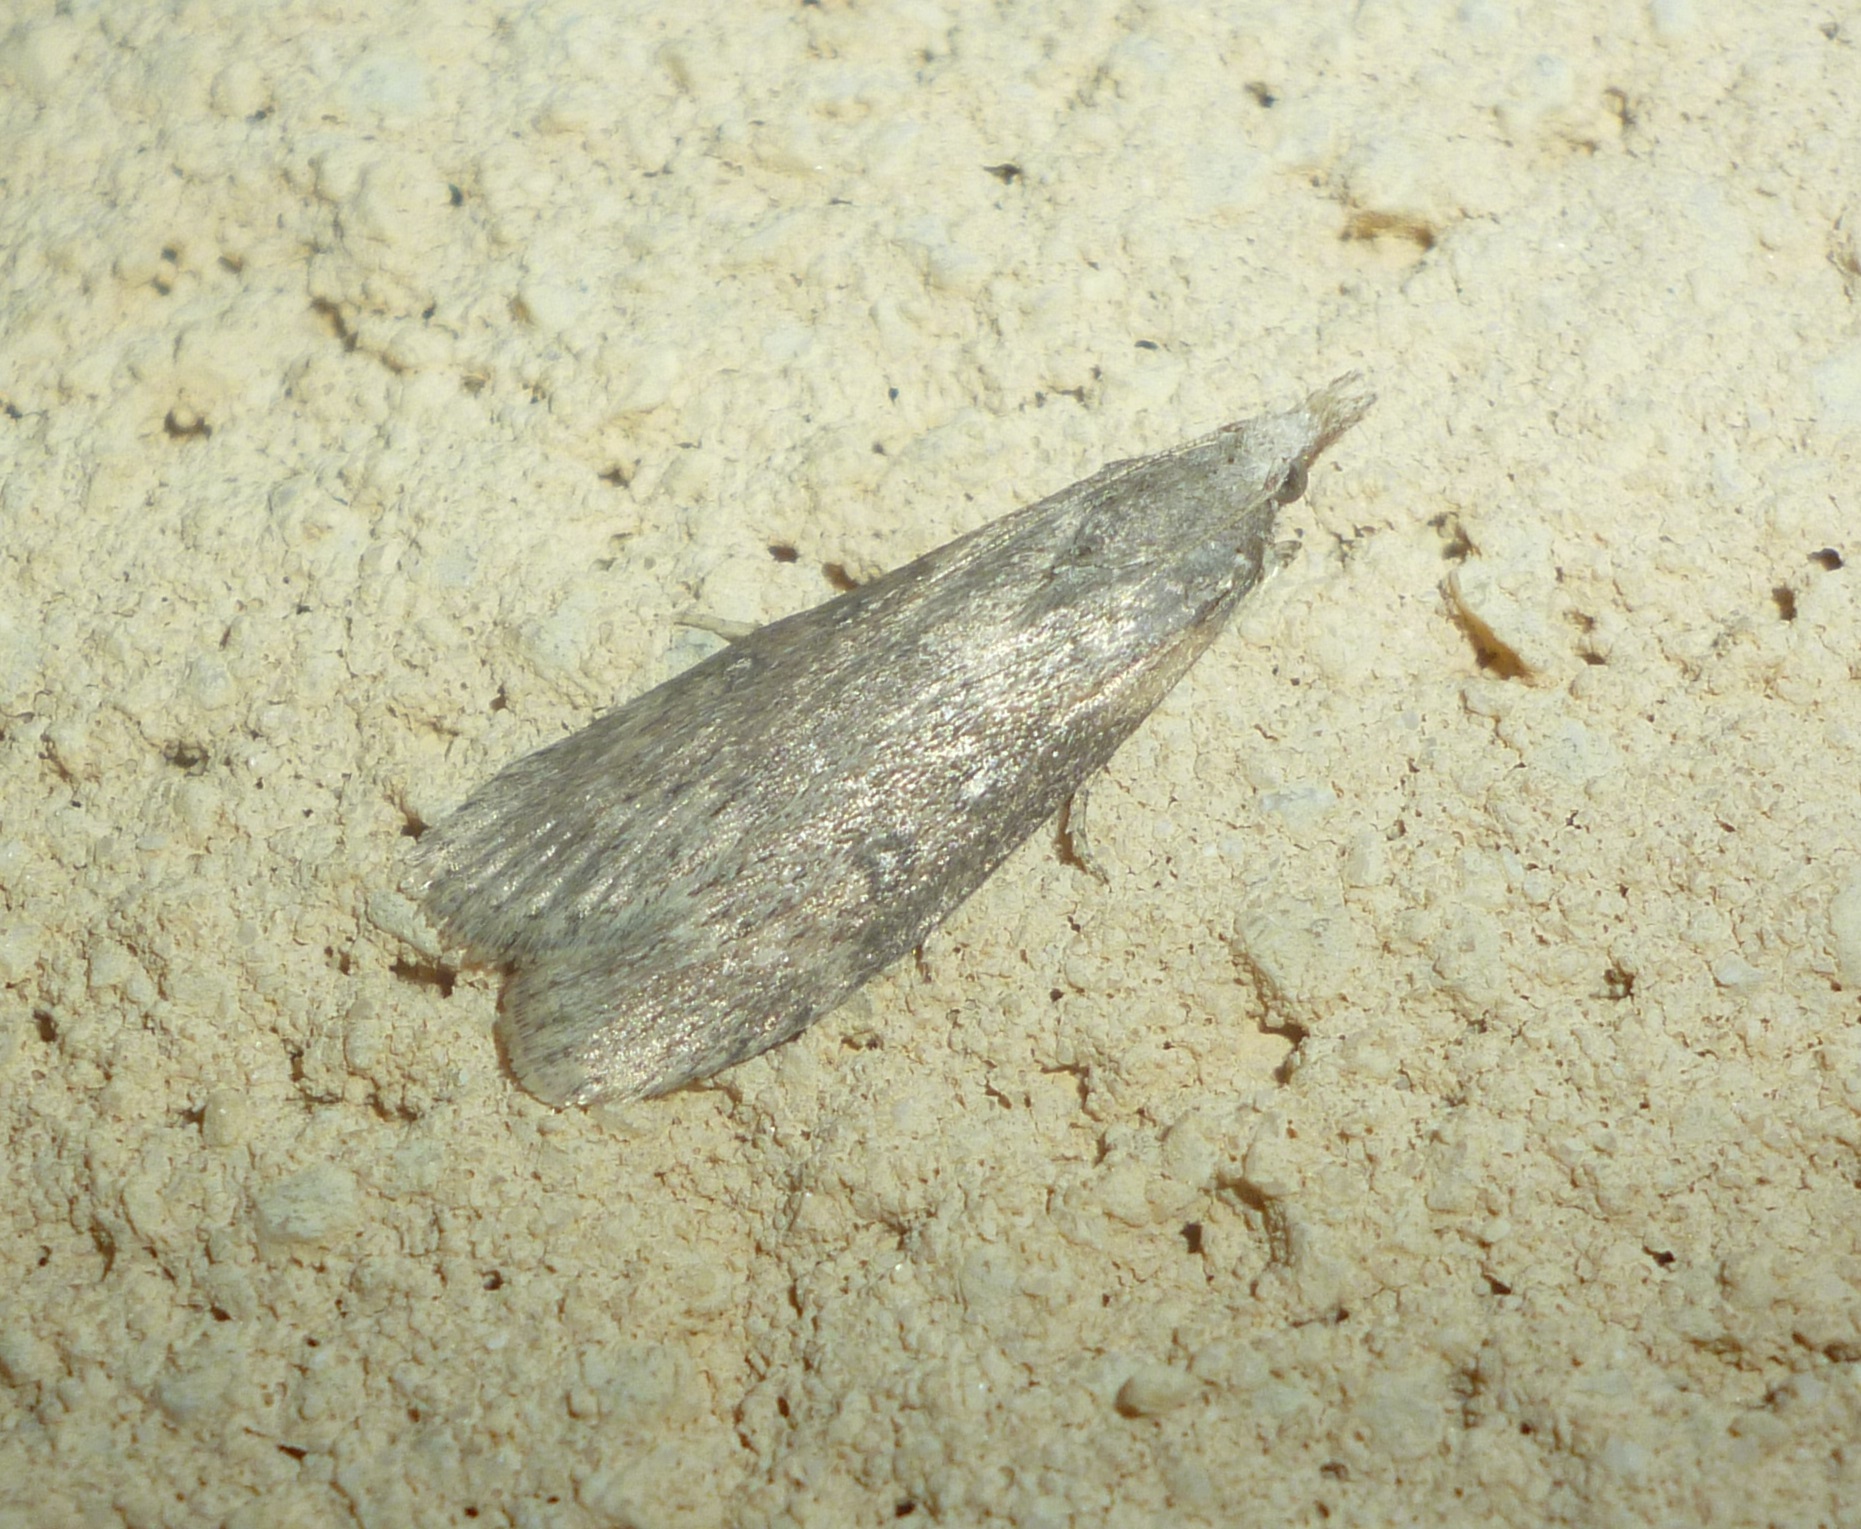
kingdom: Animalia
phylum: Arthropoda
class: Insecta
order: Lepidoptera
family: Pyralidae
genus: Lamoria
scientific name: Lamoria anella
